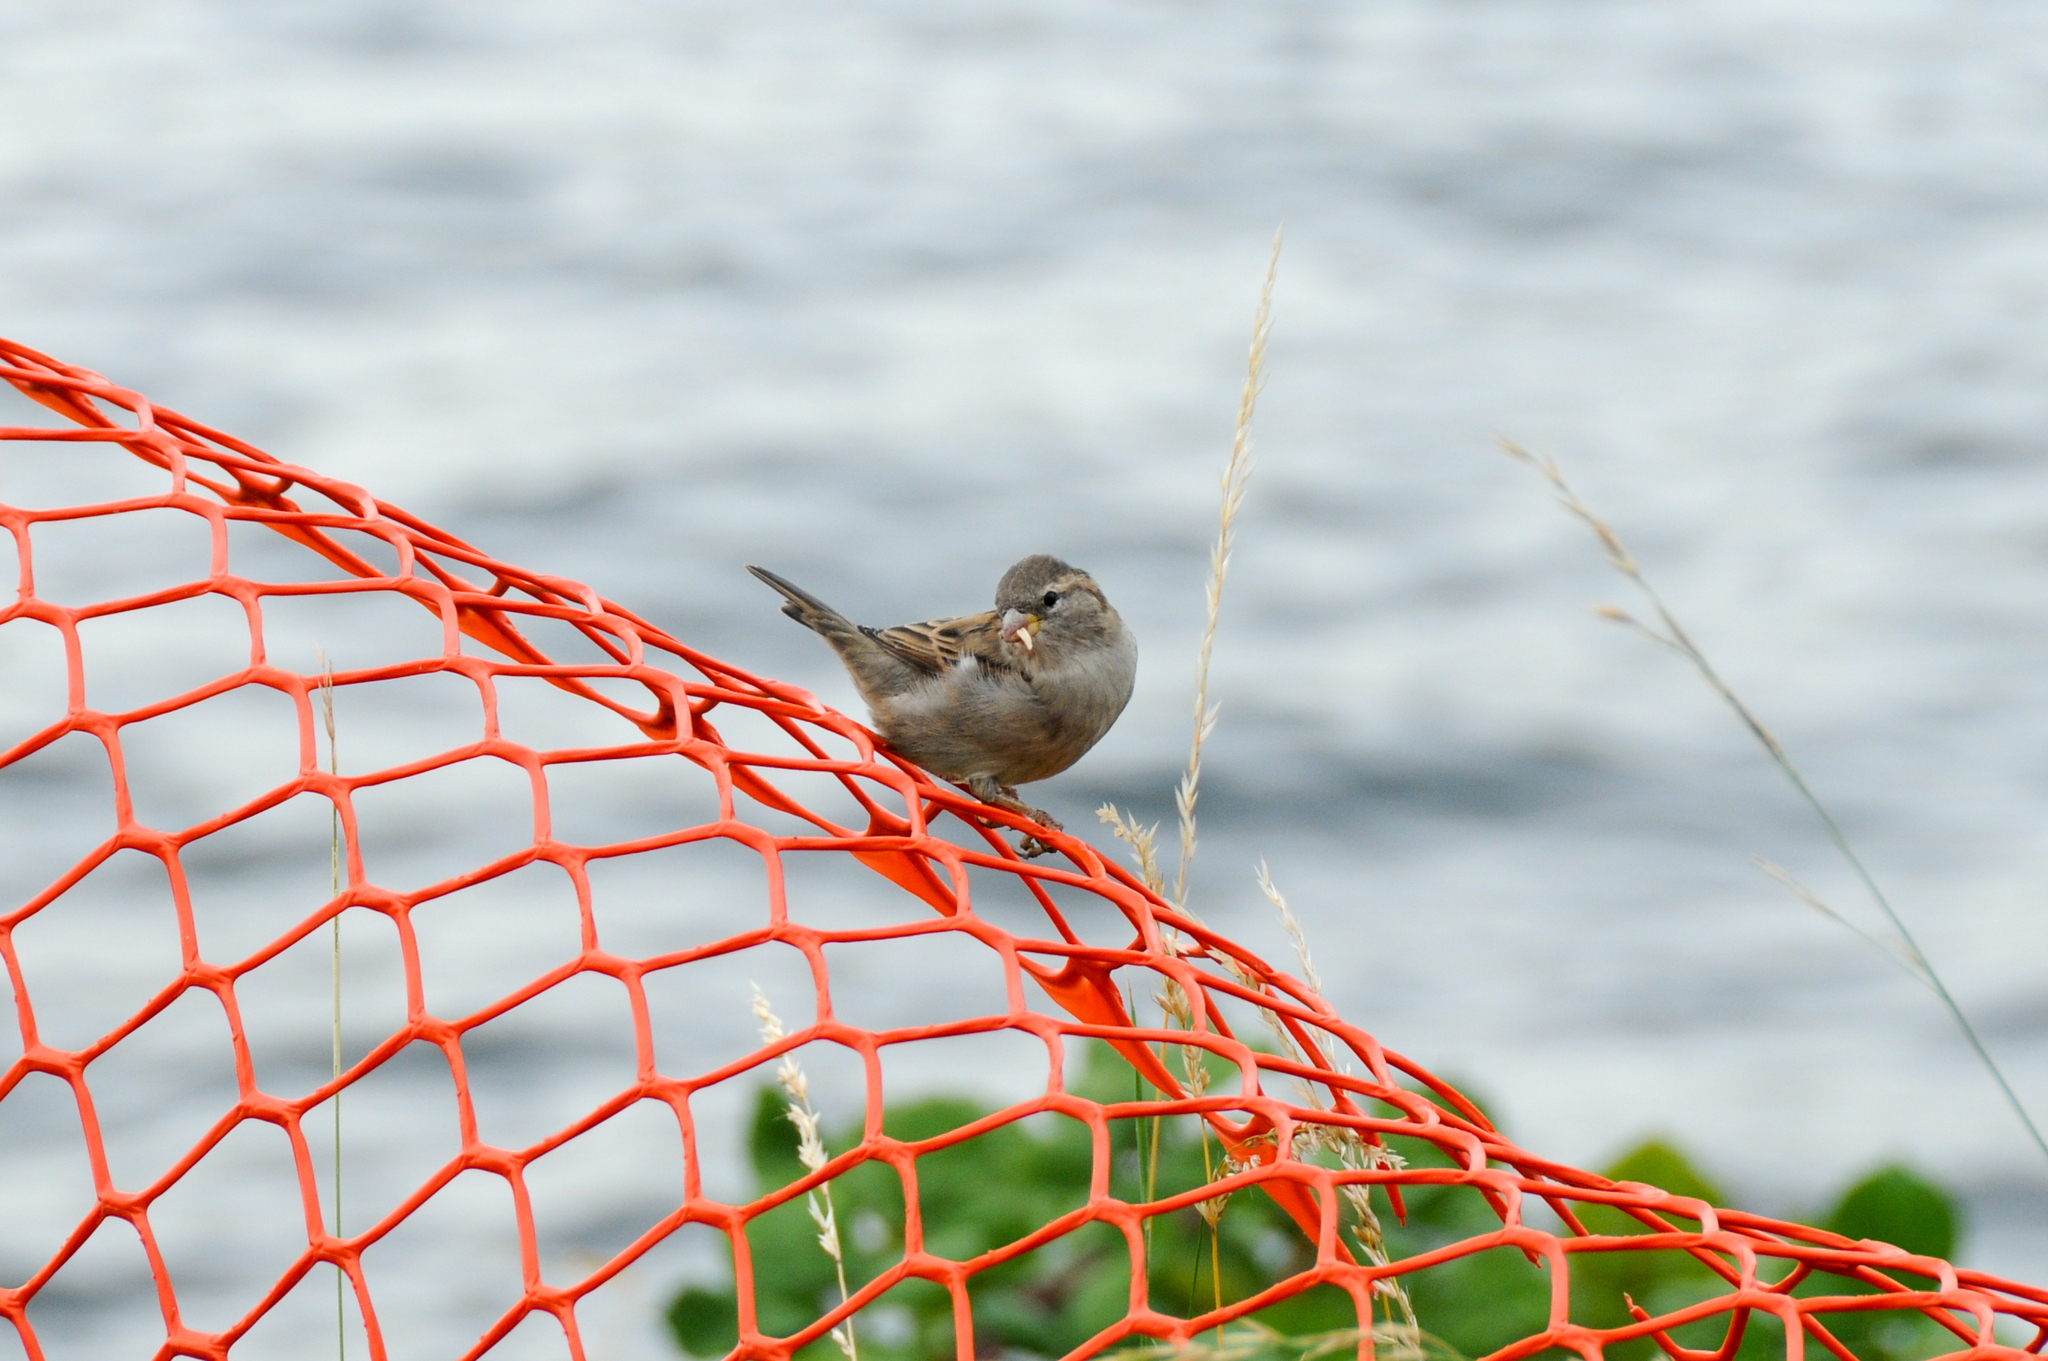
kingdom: Animalia
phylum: Chordata
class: Aves
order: Passeriformes
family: Passeridae
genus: Passer
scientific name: Passer domesticus
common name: House sparrow
